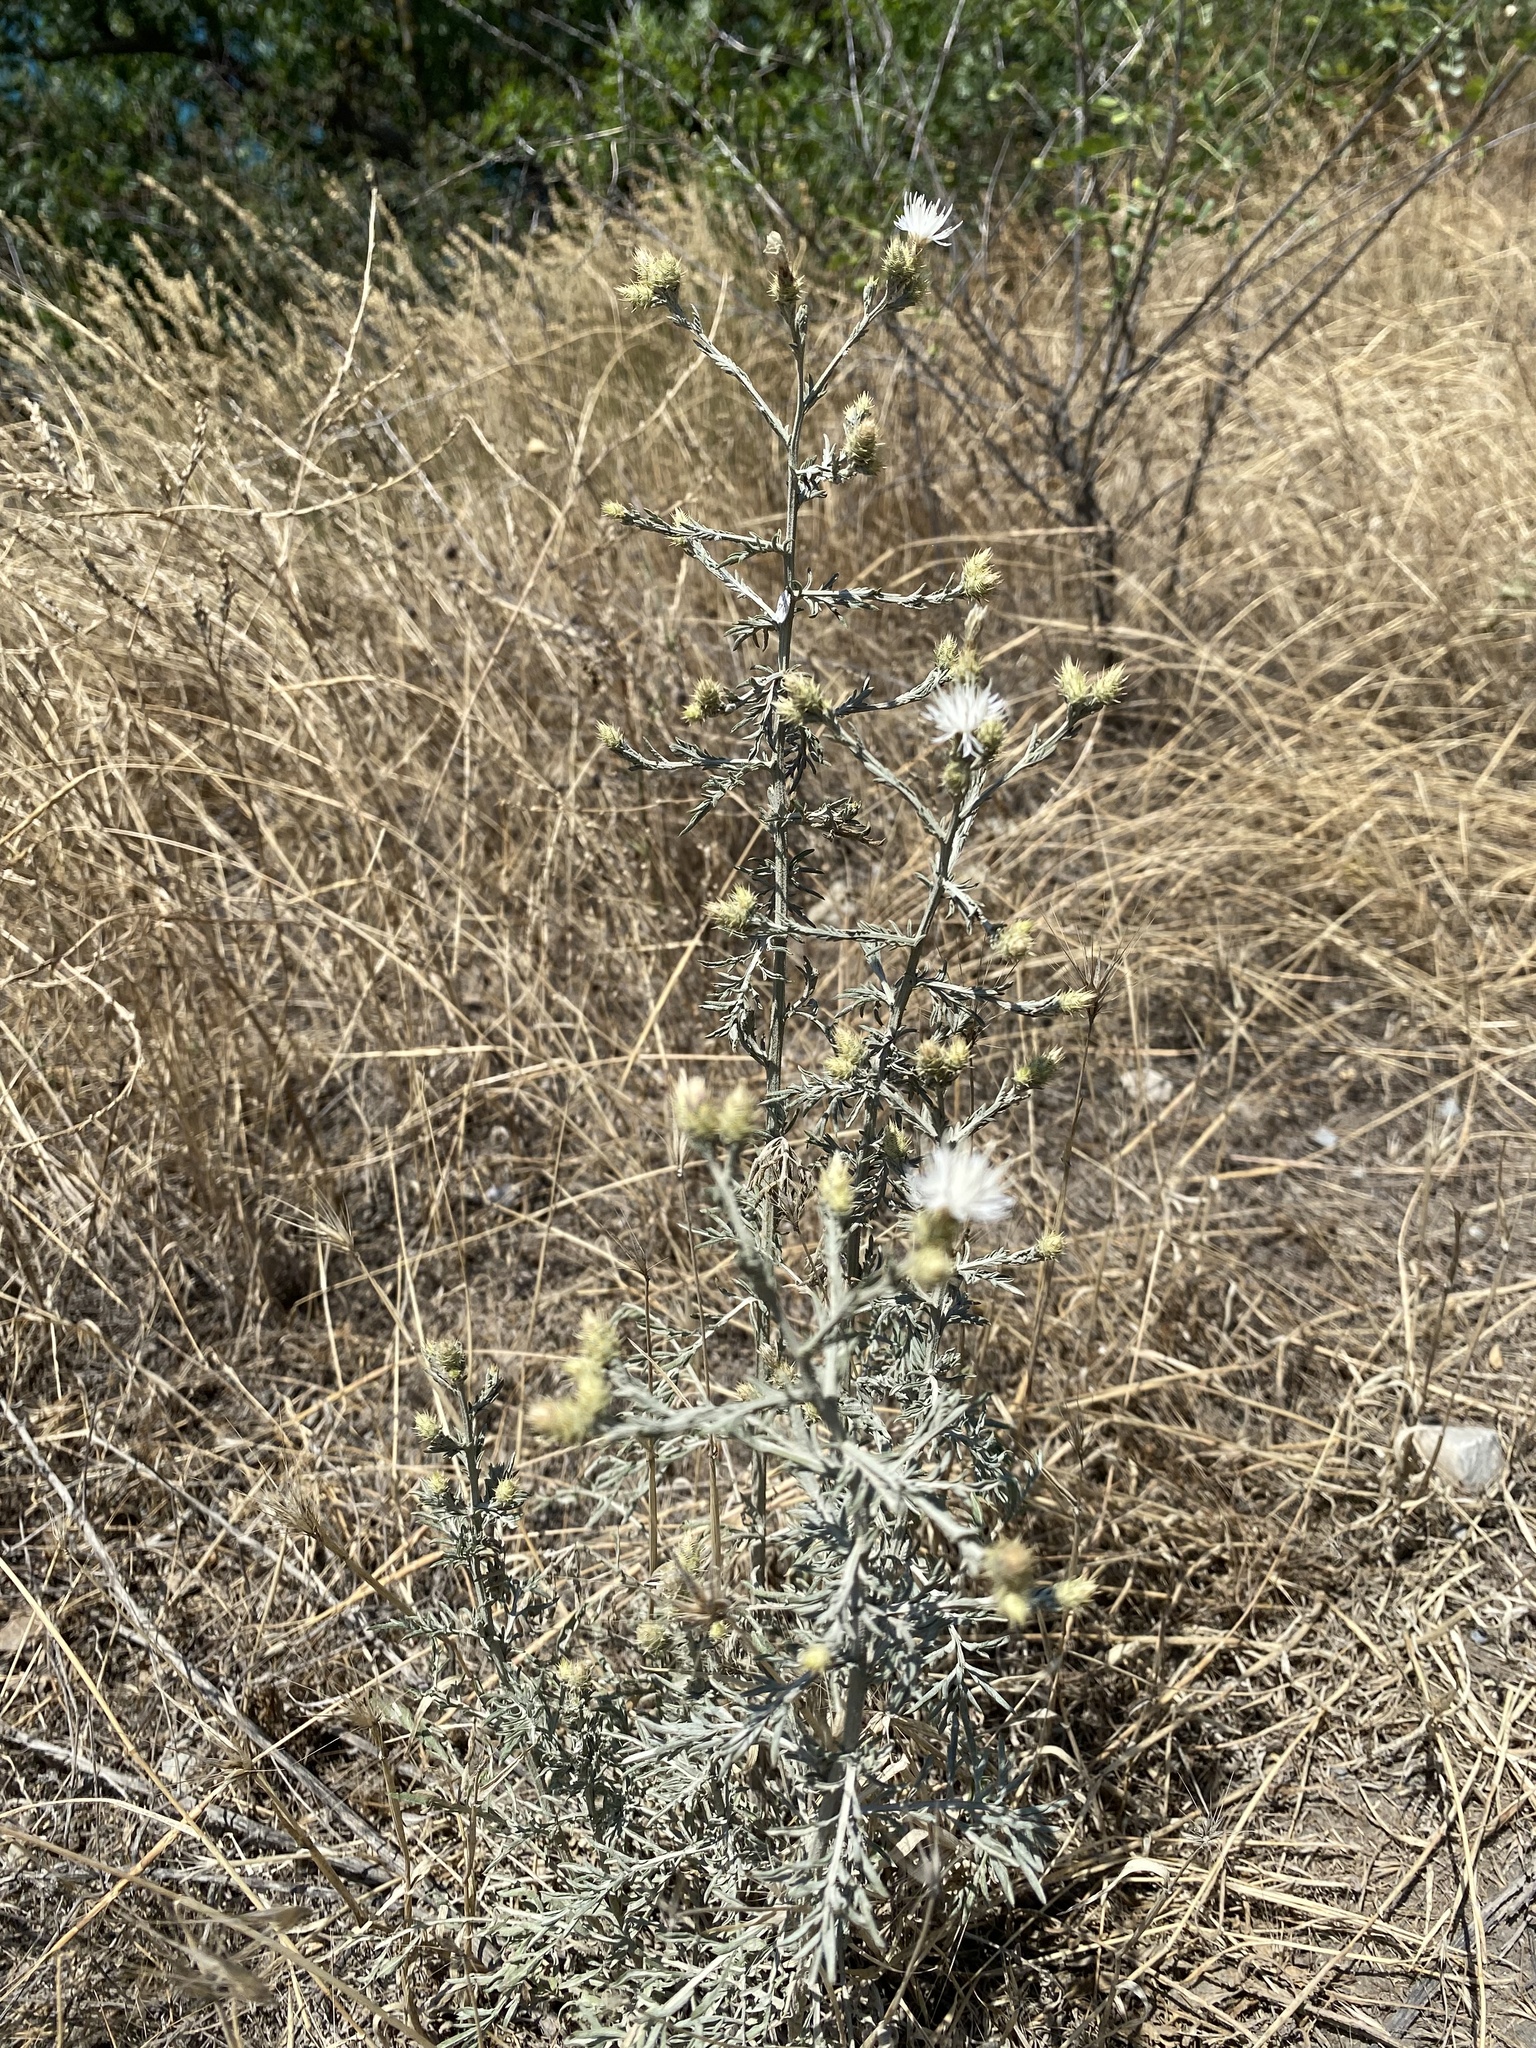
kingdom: Plantae
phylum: Tracheophyta
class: Magnoliopsida
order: Asterales
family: Asteraceae
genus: Centaurea
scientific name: Centaurea diffusa
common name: Diffuse knapweed
